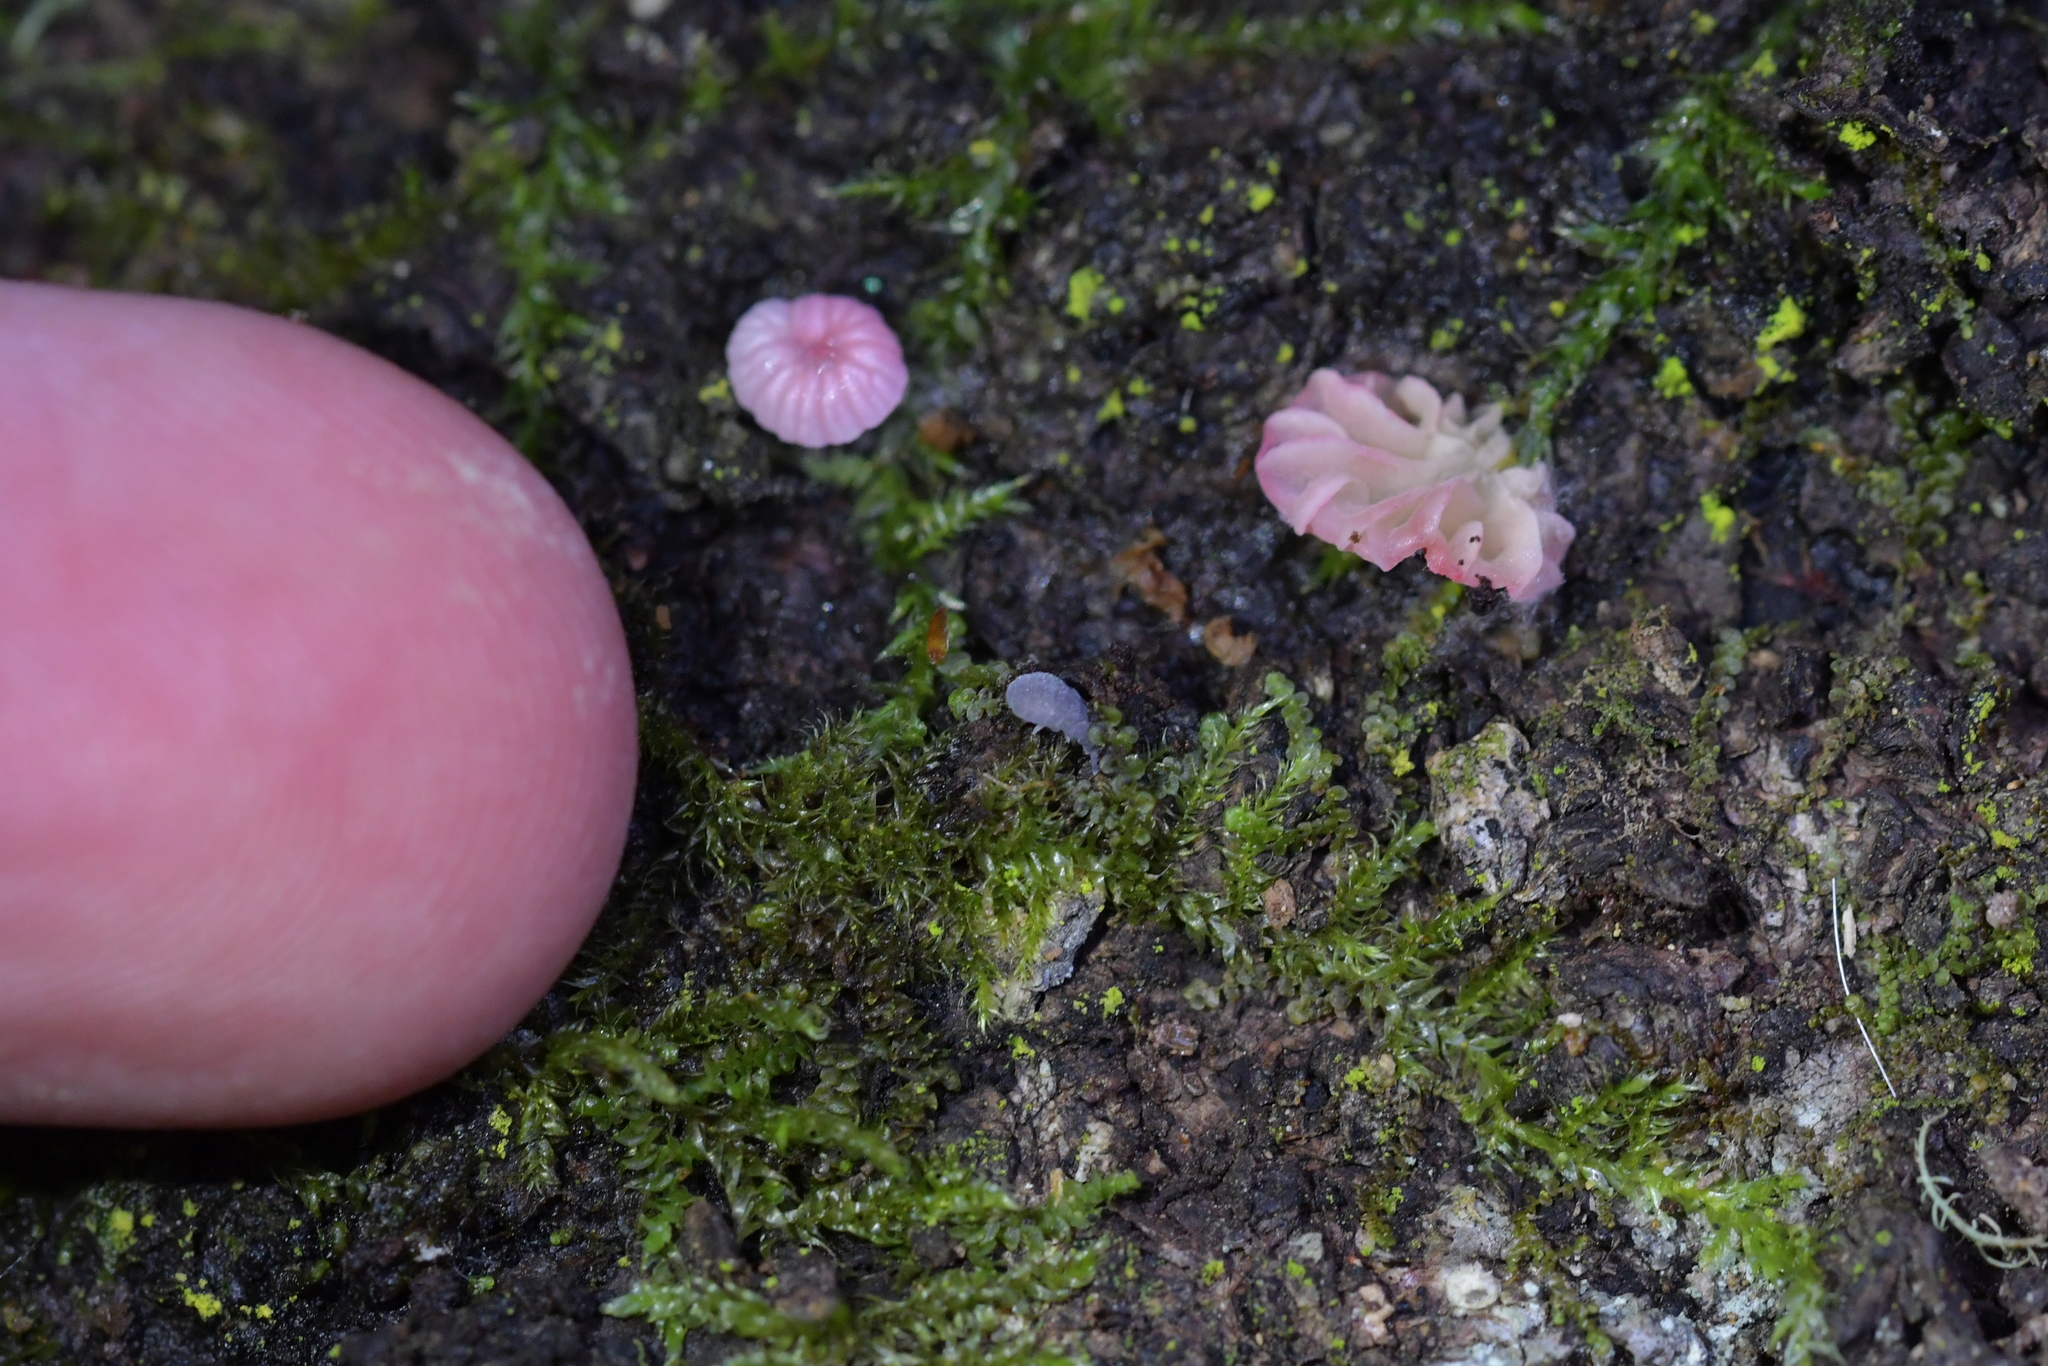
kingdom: Fungi
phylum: Basidiomycota
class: Agaricomycetes
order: Agaricales
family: Mycenaceae
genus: Mycena
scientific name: Mycena roseoflava
